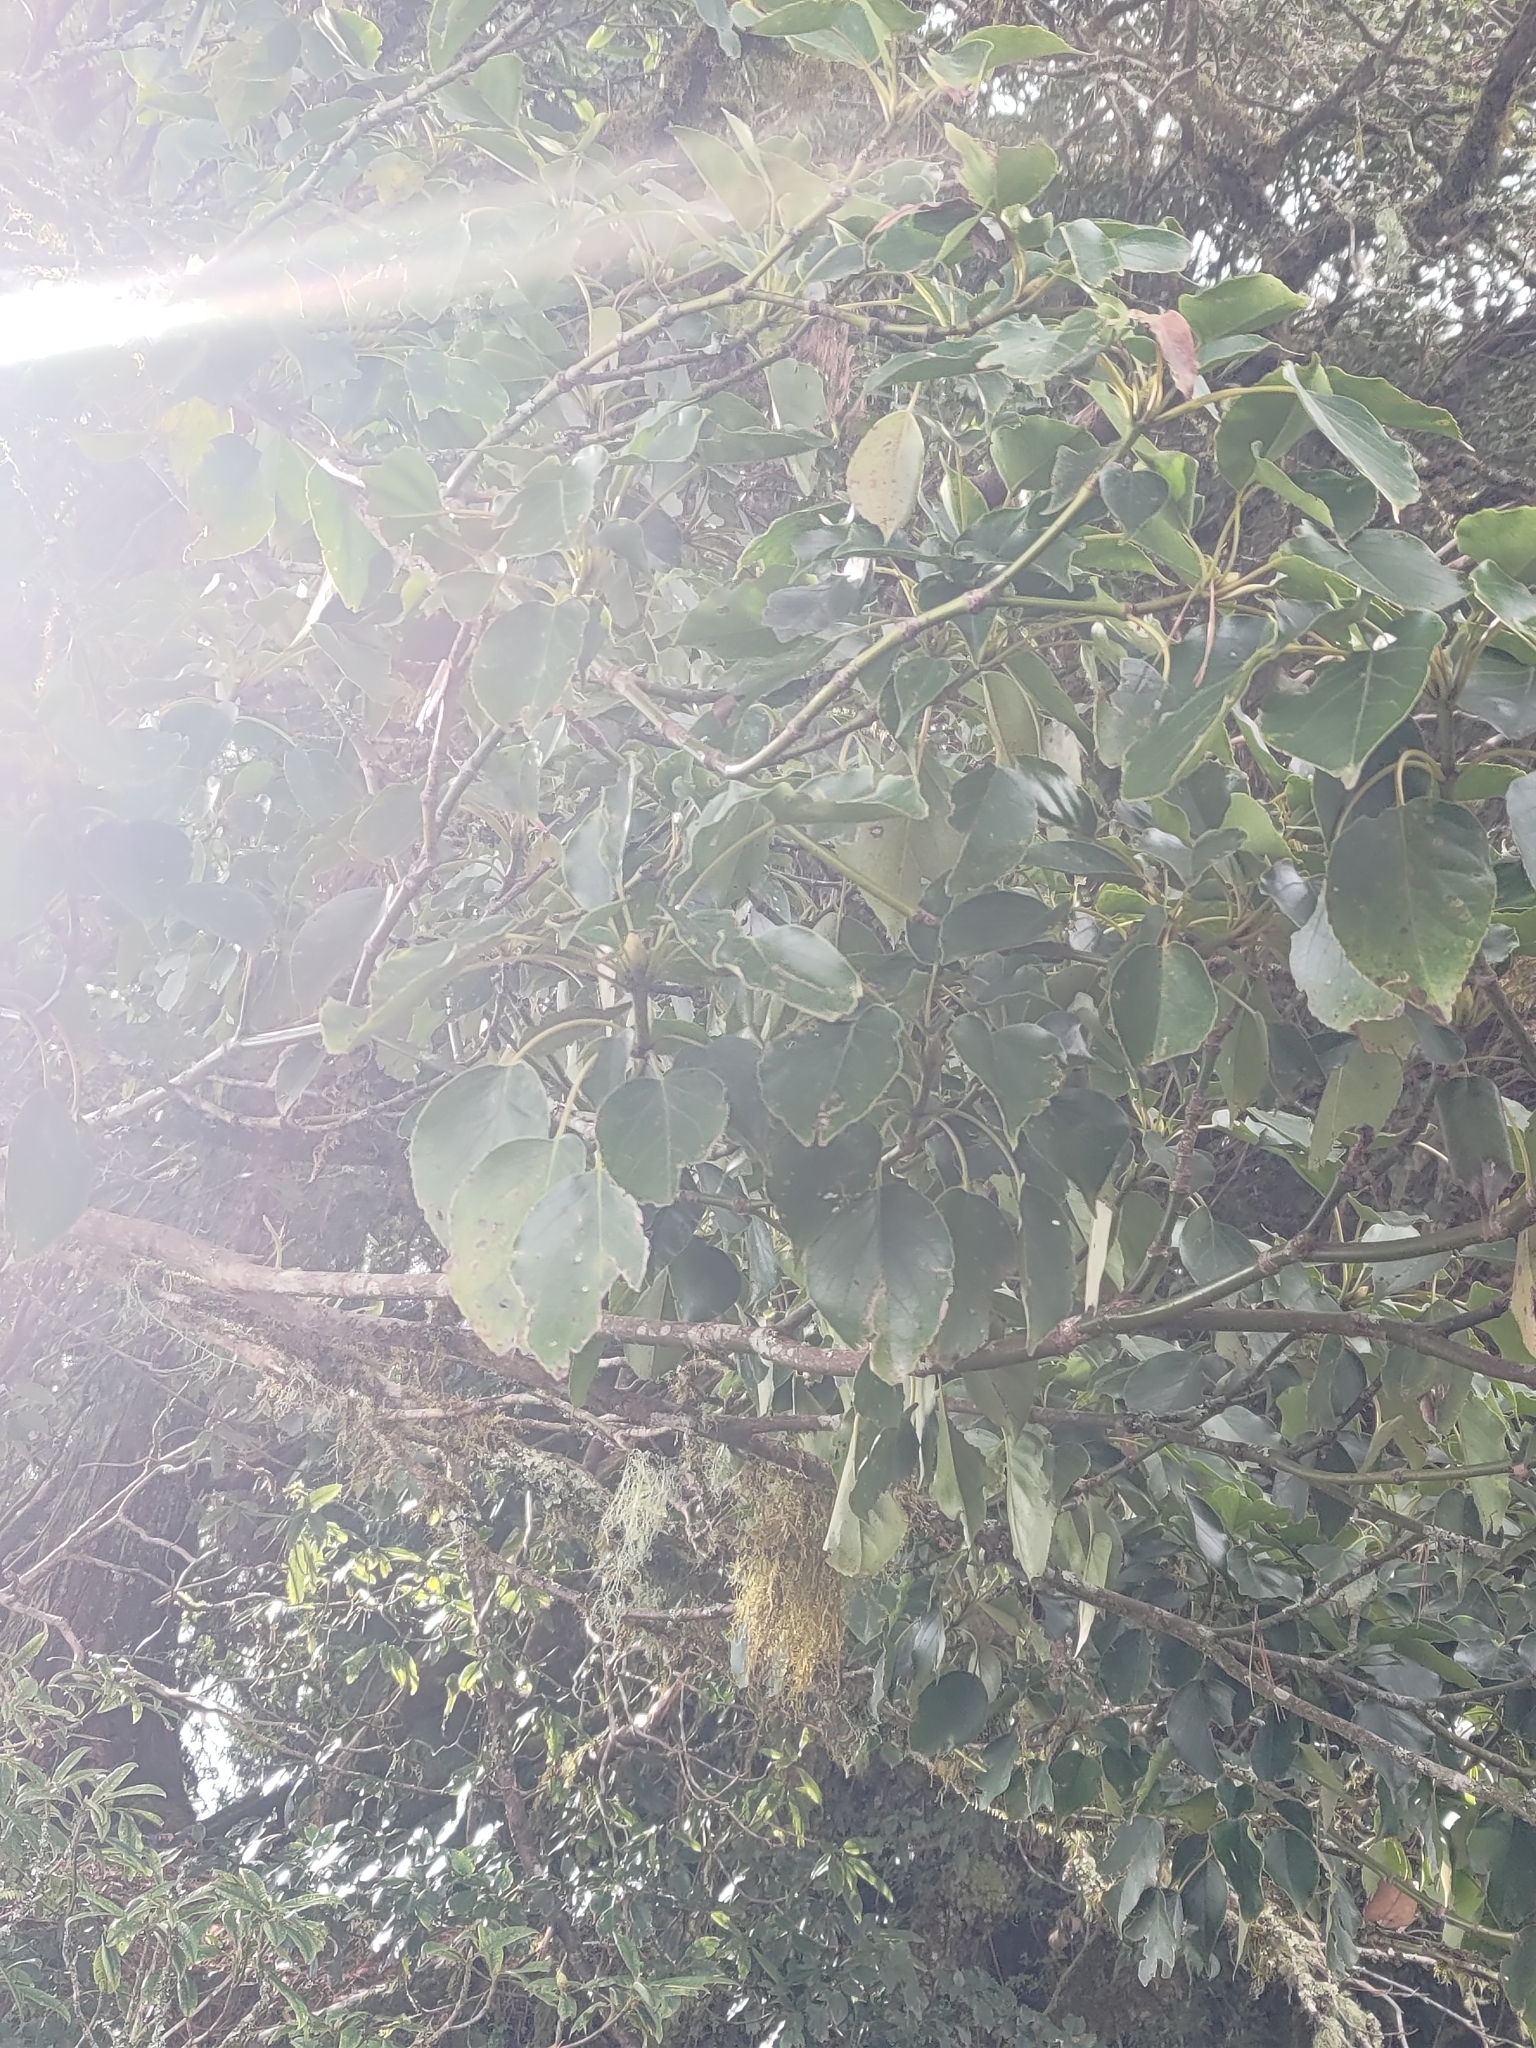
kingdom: Plantae
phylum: Tracheophyta
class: Magnoliopsida
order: Trochodendrales
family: Trochodendraceae
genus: Trochodendron
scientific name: Trochodendron aralioides
